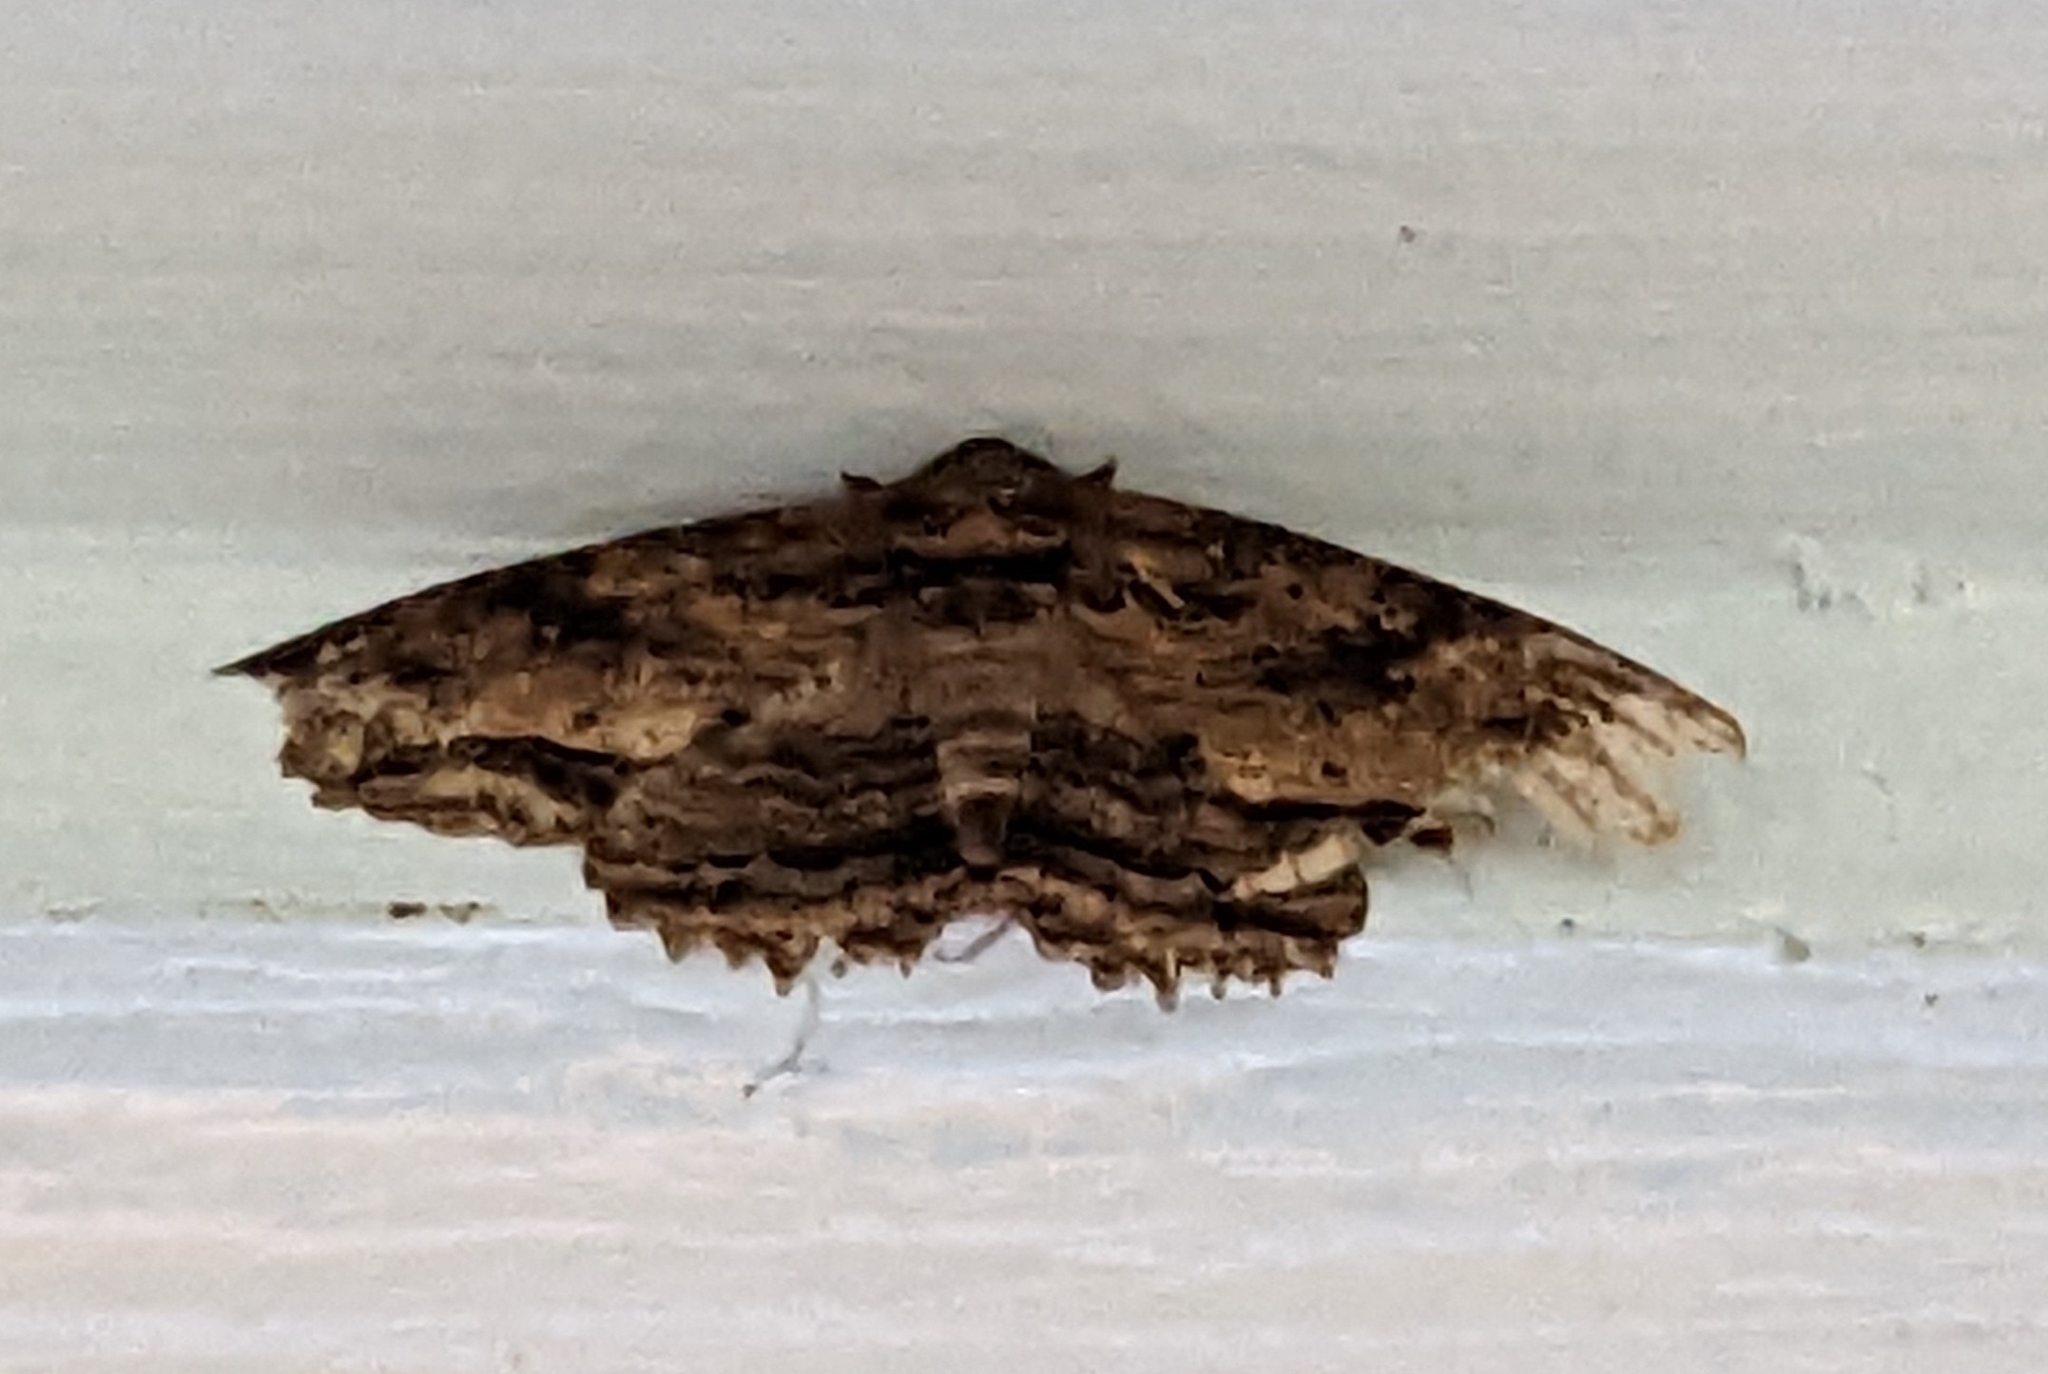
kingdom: Animalia
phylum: Arthropoda
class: Insecta
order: Lepidoptera
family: Erebidae
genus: Zale
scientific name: Zale lunata
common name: Lunate zale moth
